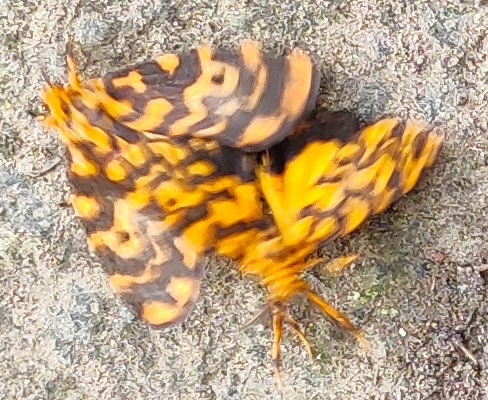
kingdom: Animalia
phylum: Arthropoda
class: Insecta
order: Lepidoptera
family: Erebidae
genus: Nepita
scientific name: Nepita conferta
